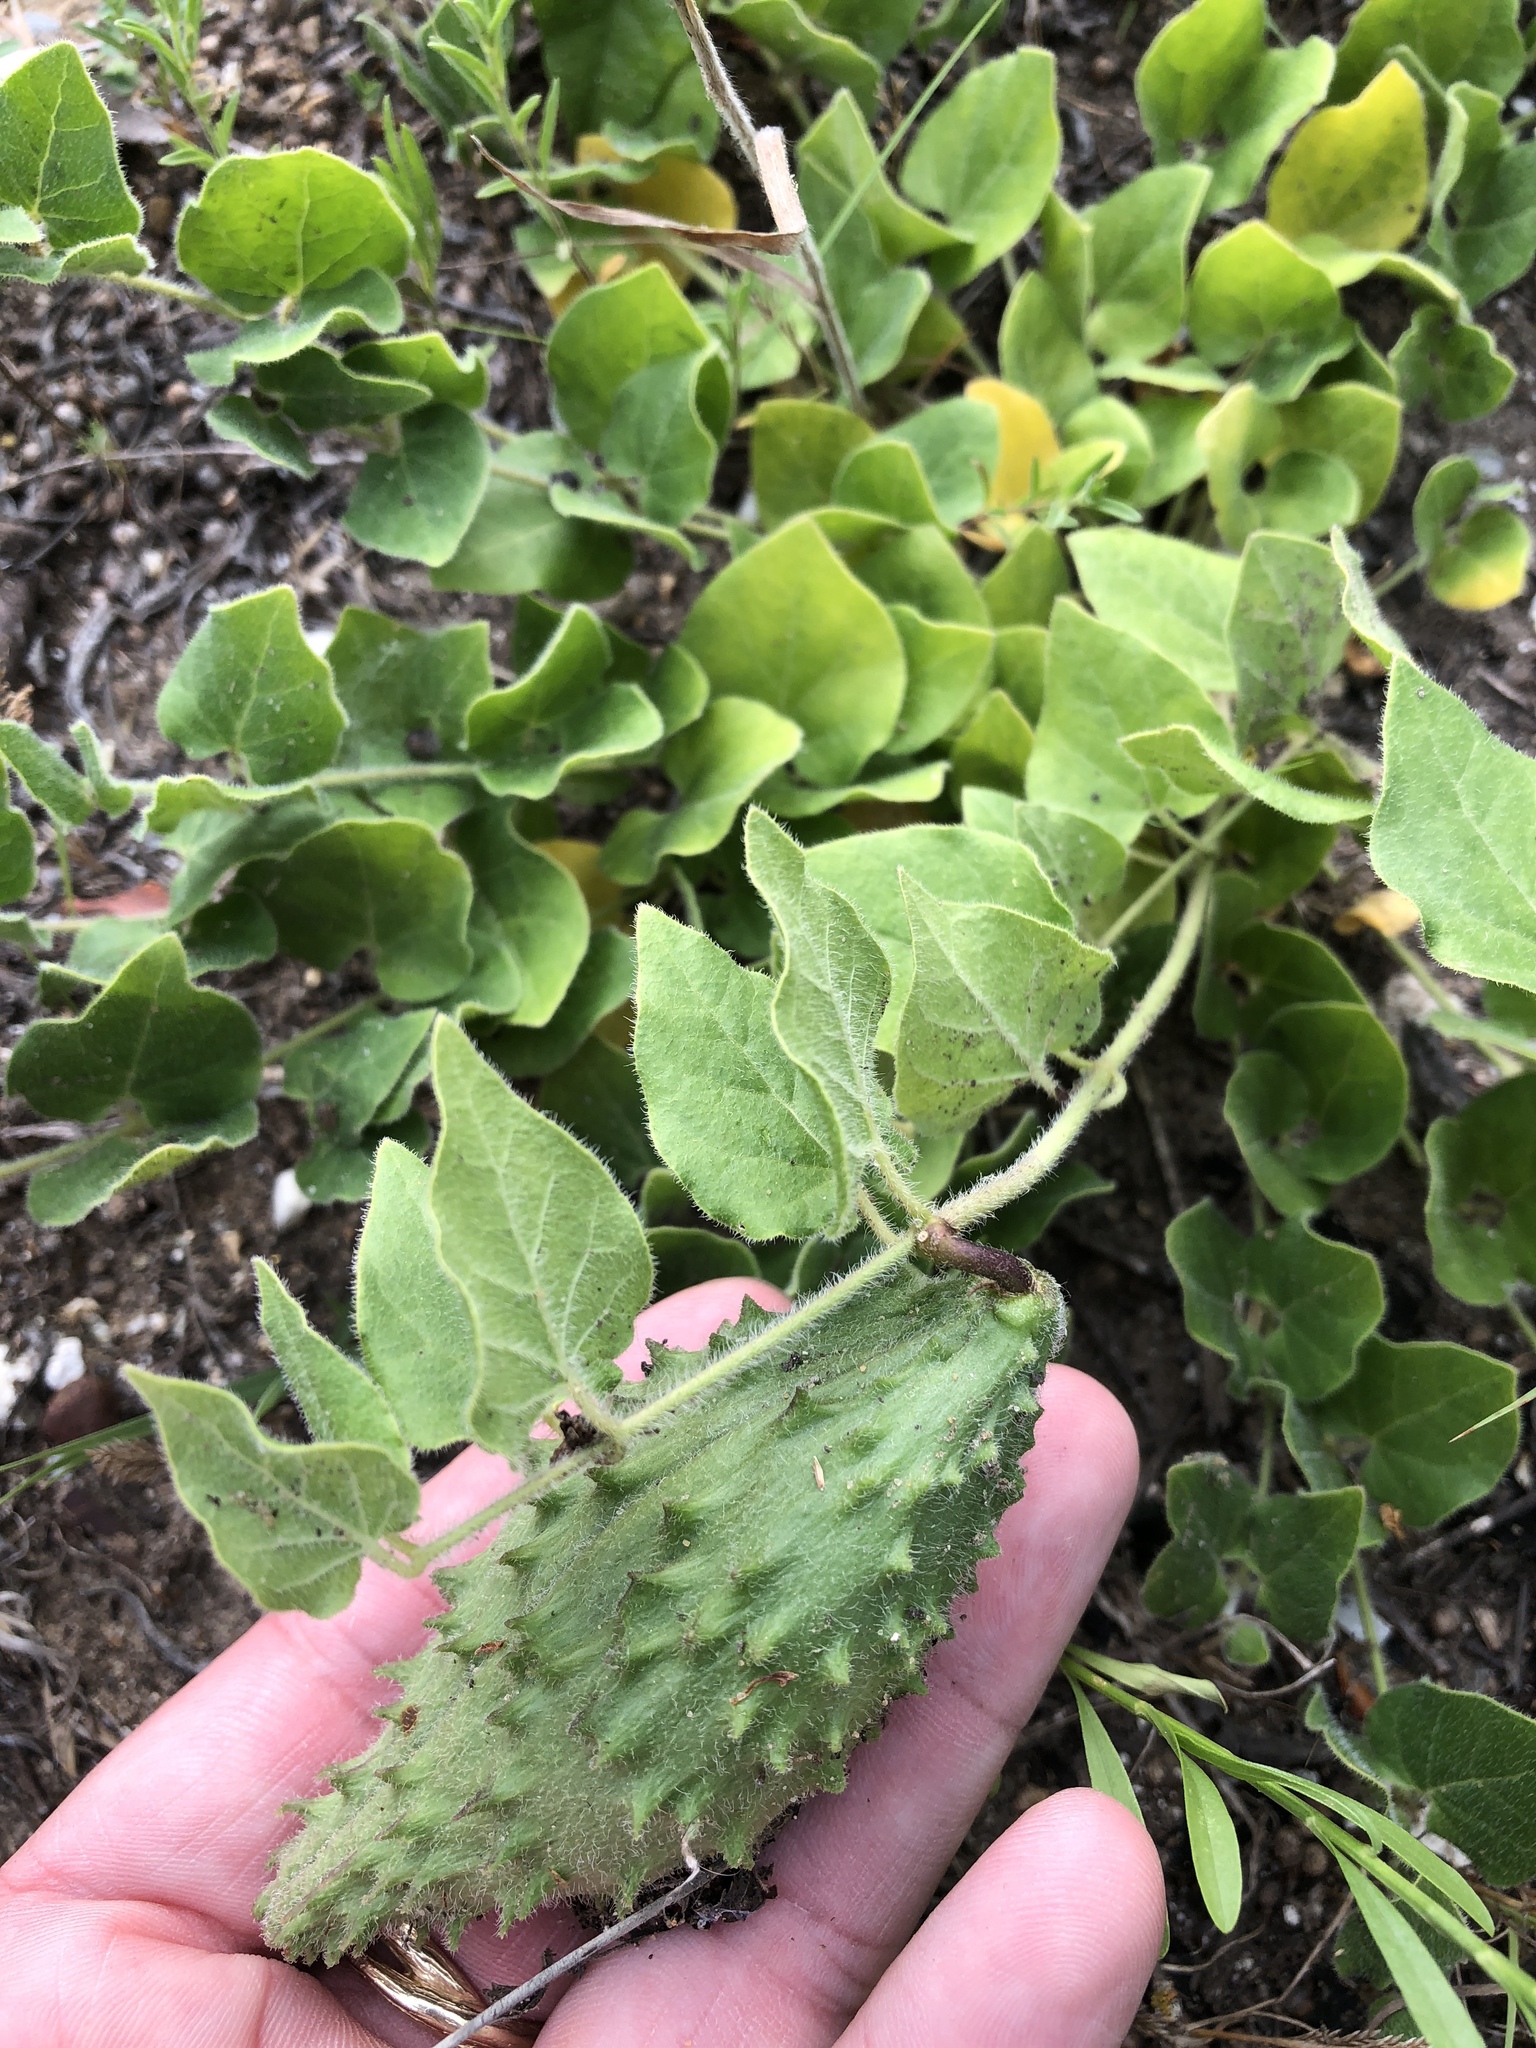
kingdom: Plantae
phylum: Tracheophyta
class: Magnoliopsida
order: Gentianales
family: Apocynaceae
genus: Chthamalia
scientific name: Chthamalia biflora
